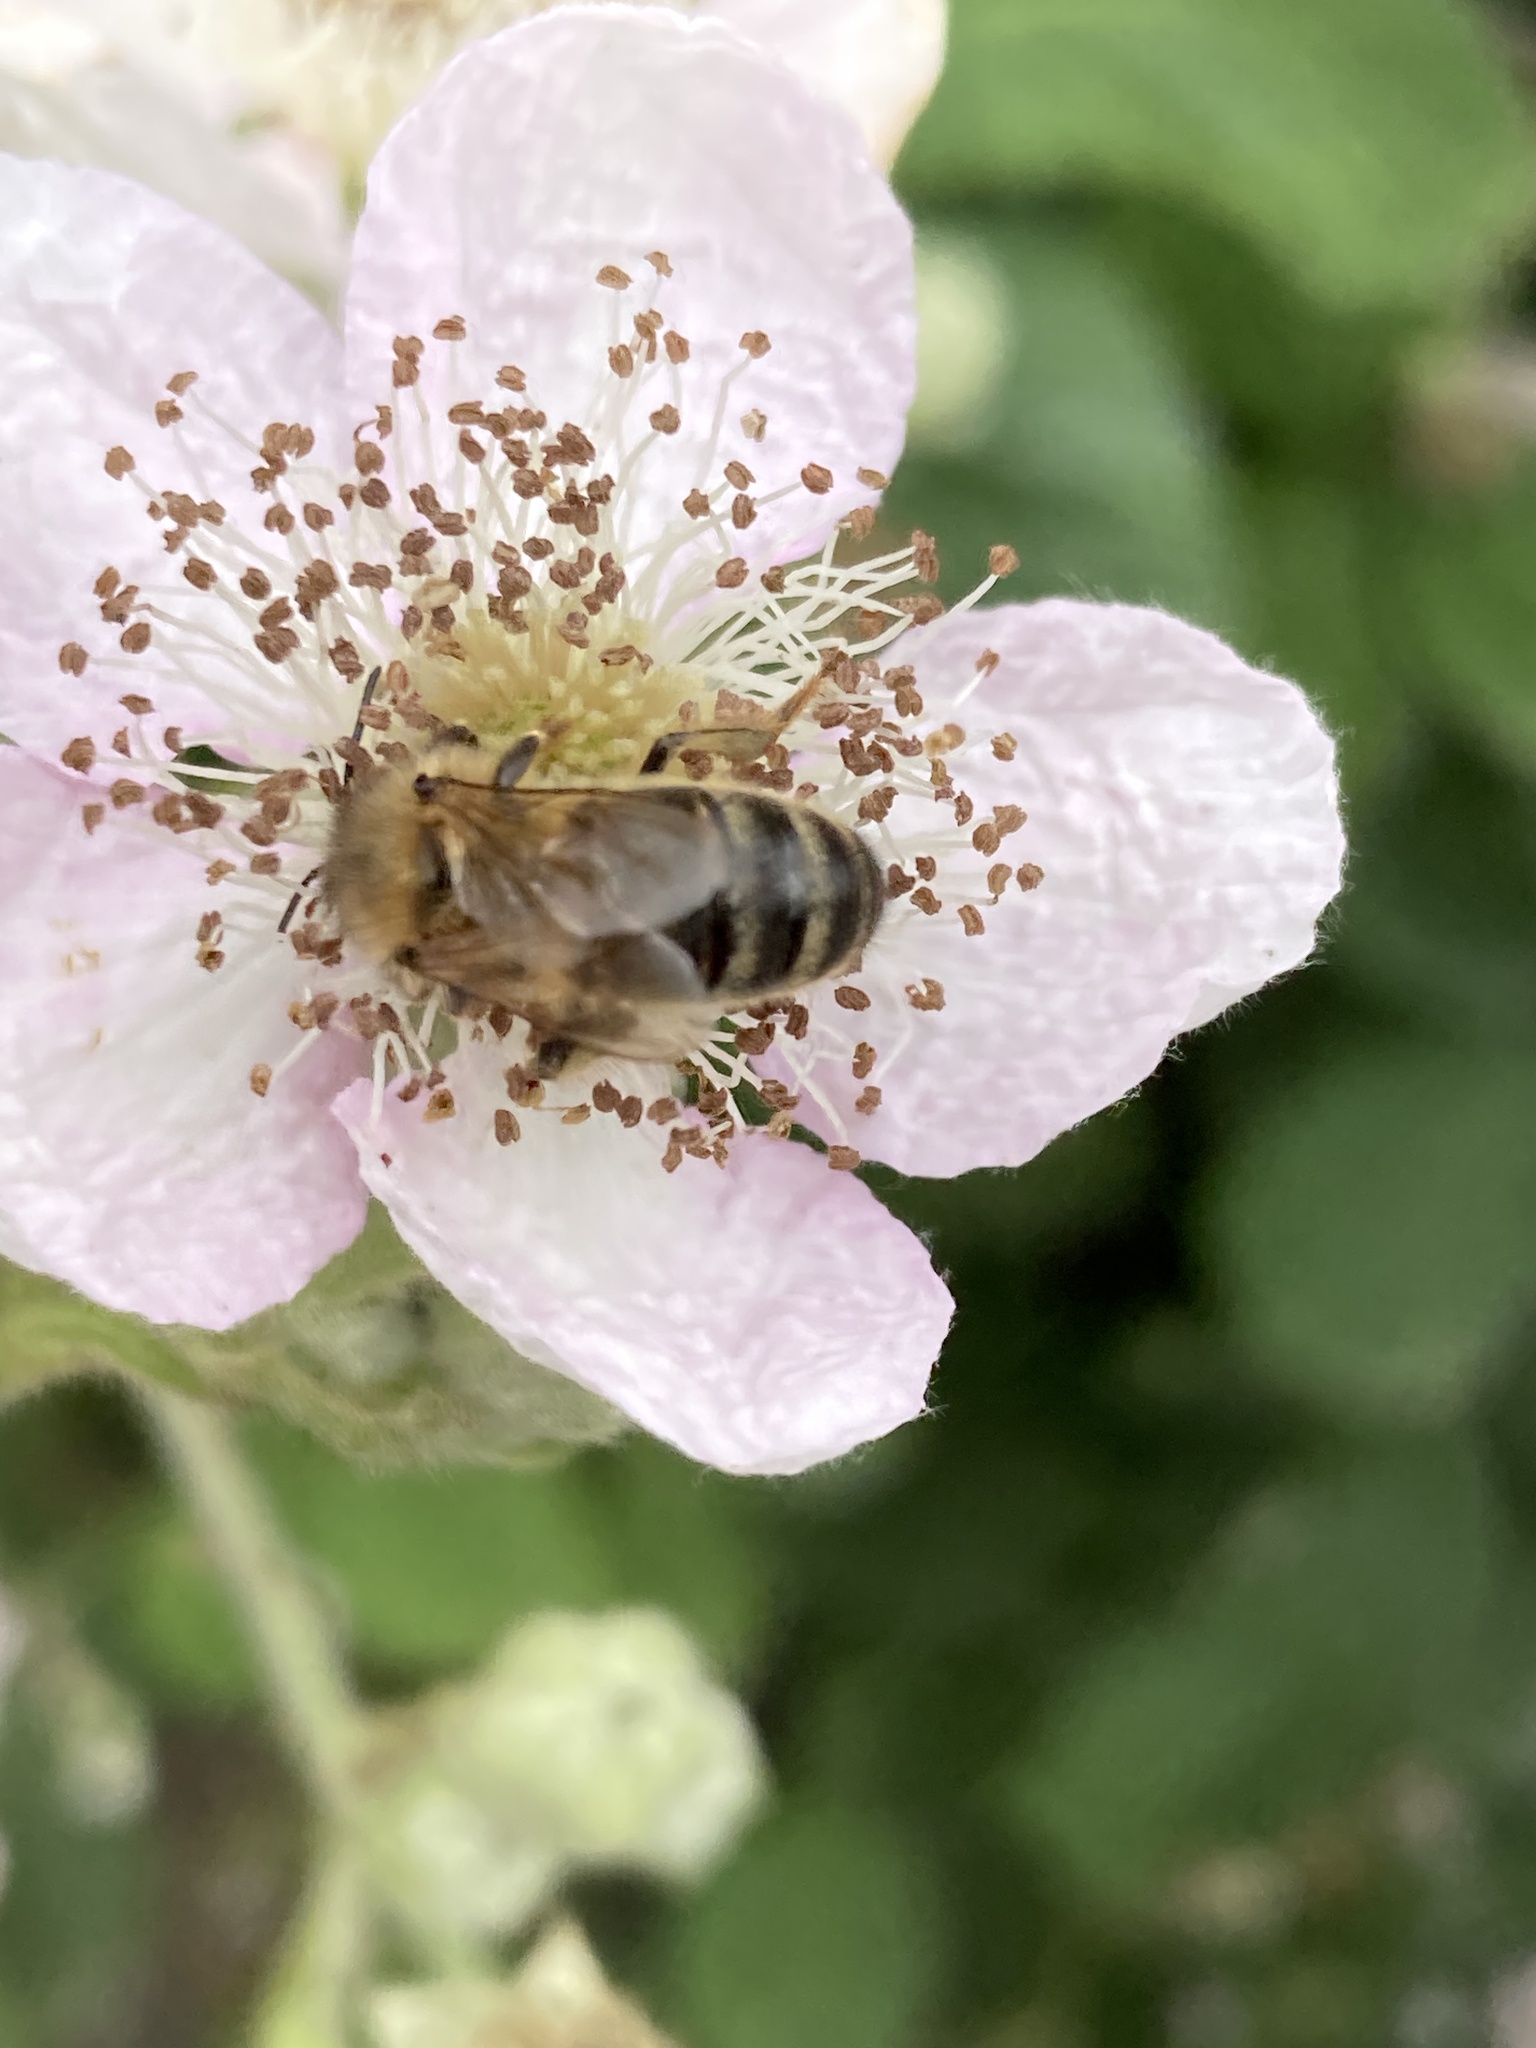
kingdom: Animalia
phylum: Arthropoda
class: Insecta
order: Hymenoptera
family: Apidae
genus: Apis
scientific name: Apis mellifera
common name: Honey bee
